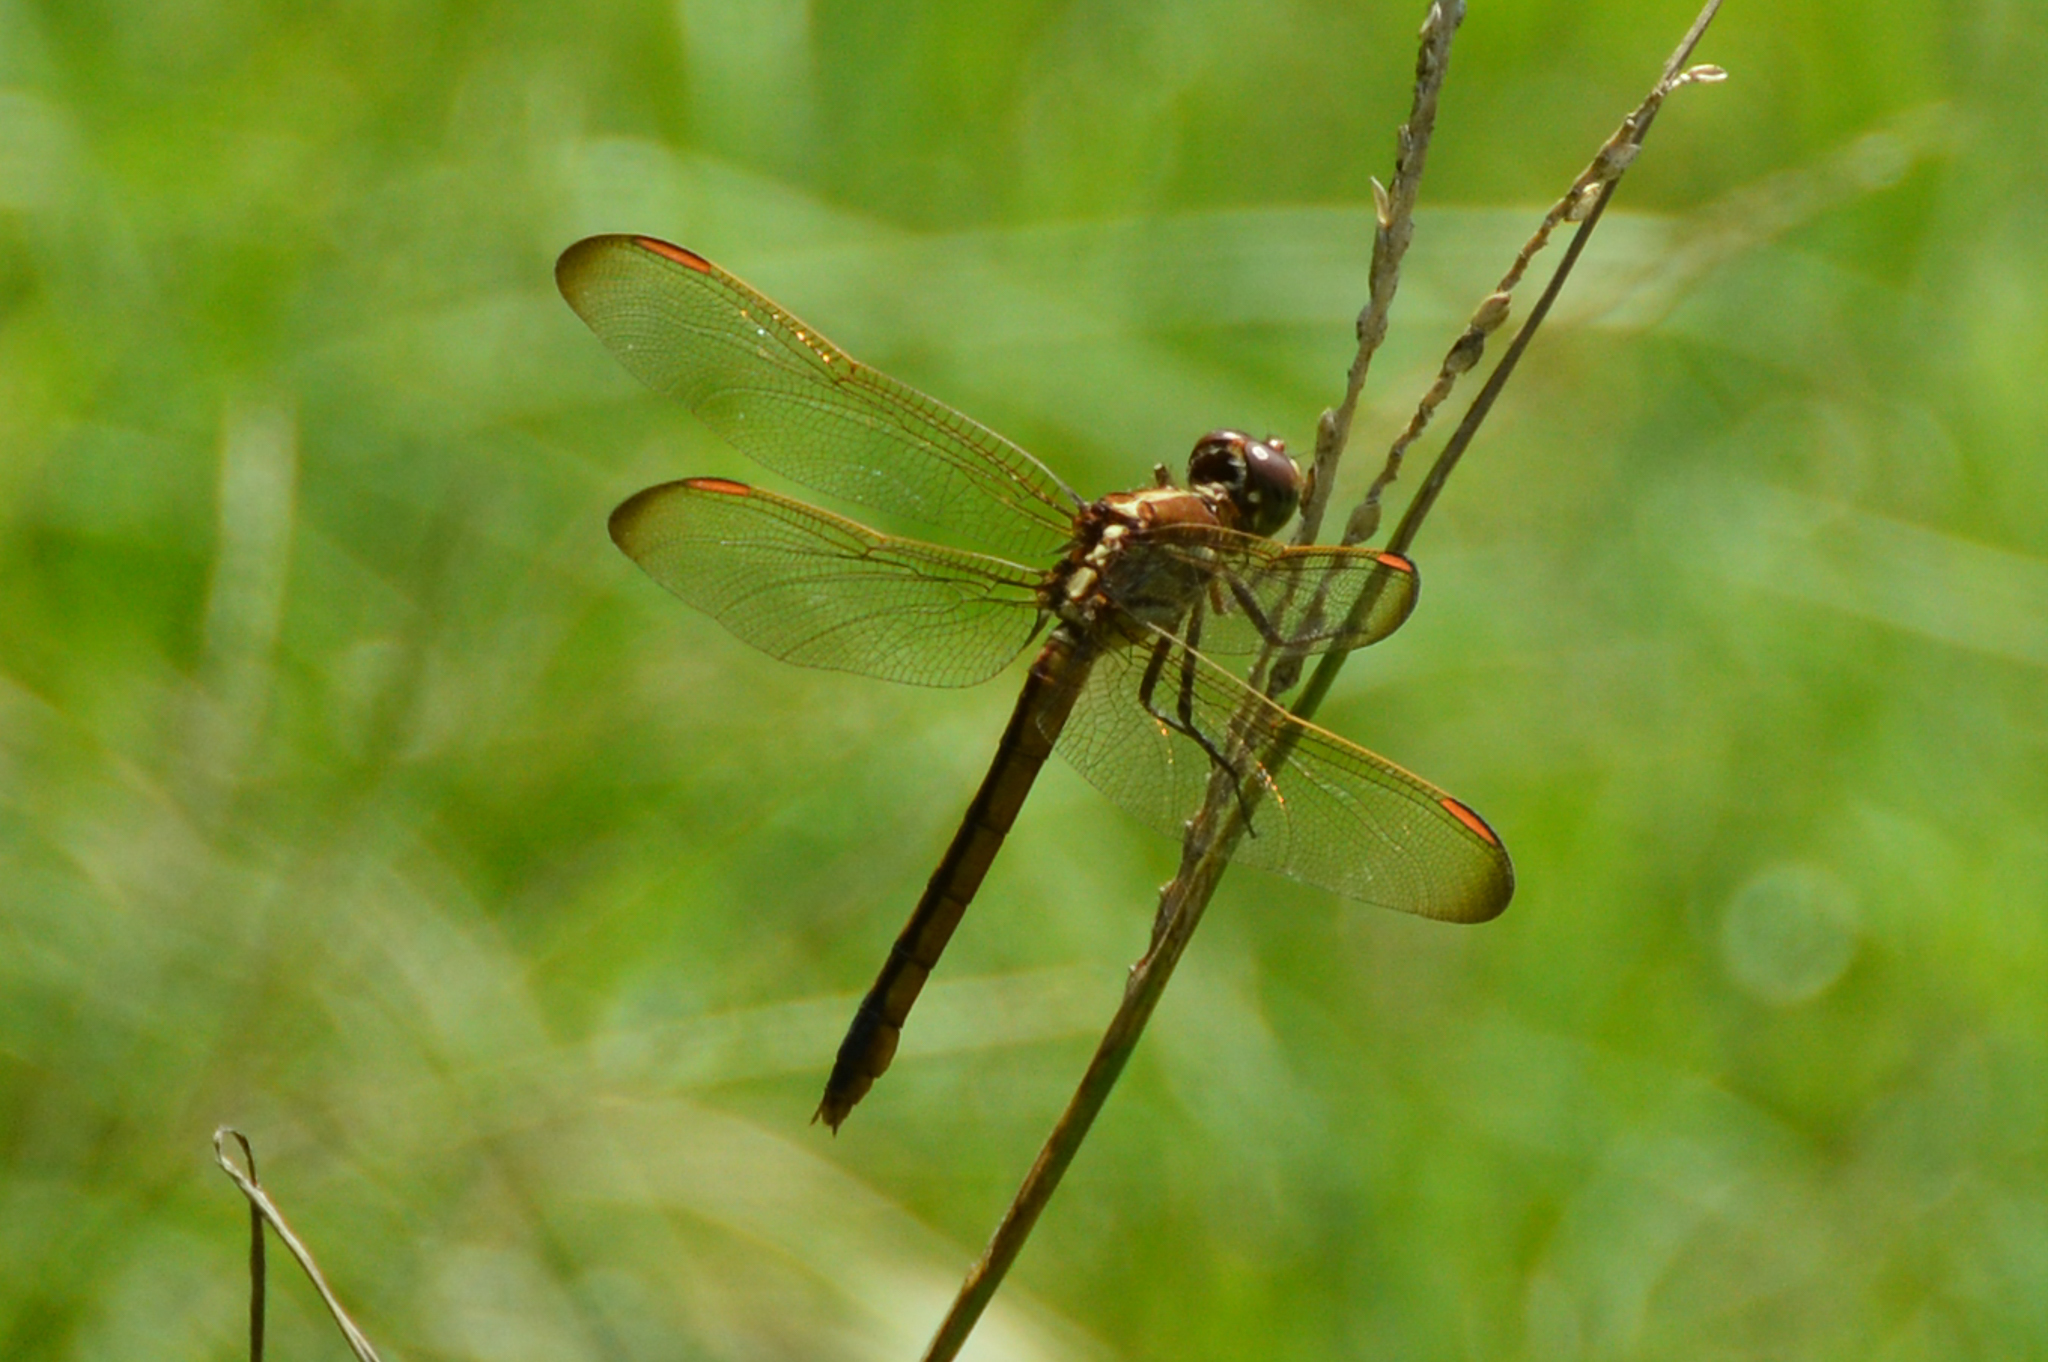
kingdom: Animalia
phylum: Arthropoda
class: Insecta
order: Odonata
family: Libellulidae
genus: Libellula
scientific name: Libellula auripennis
